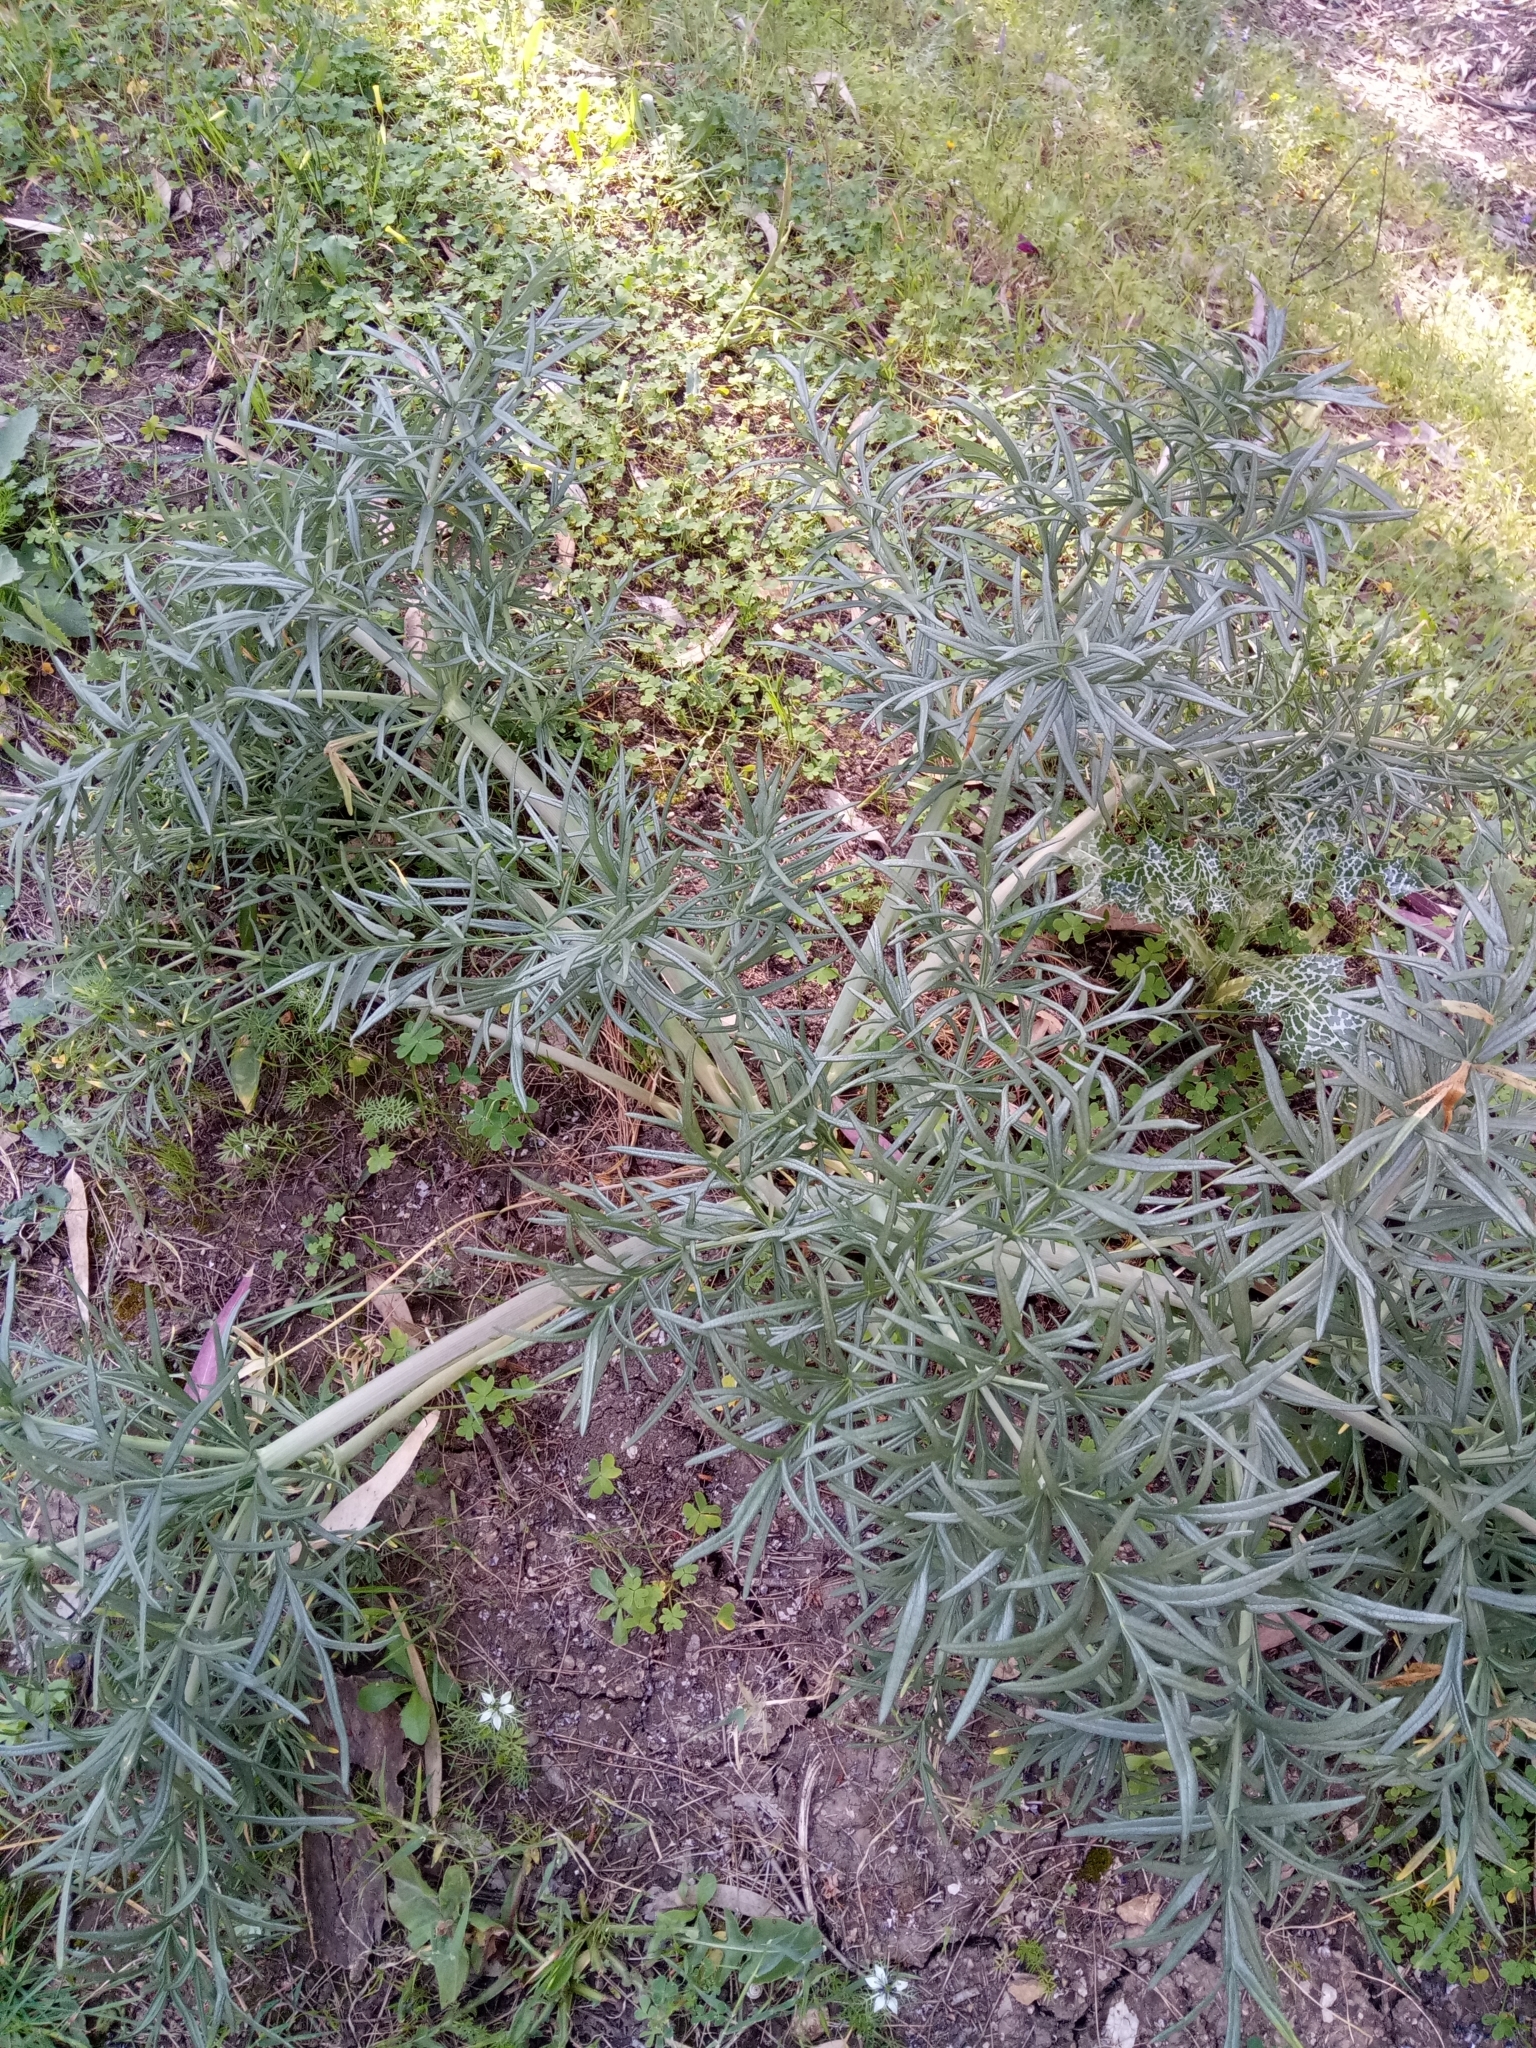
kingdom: Plantae
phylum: Tracheophyta
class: Magnoliopsida
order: Apiales
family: Apiaceae
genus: Thapsia
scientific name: Thapsia garganica
